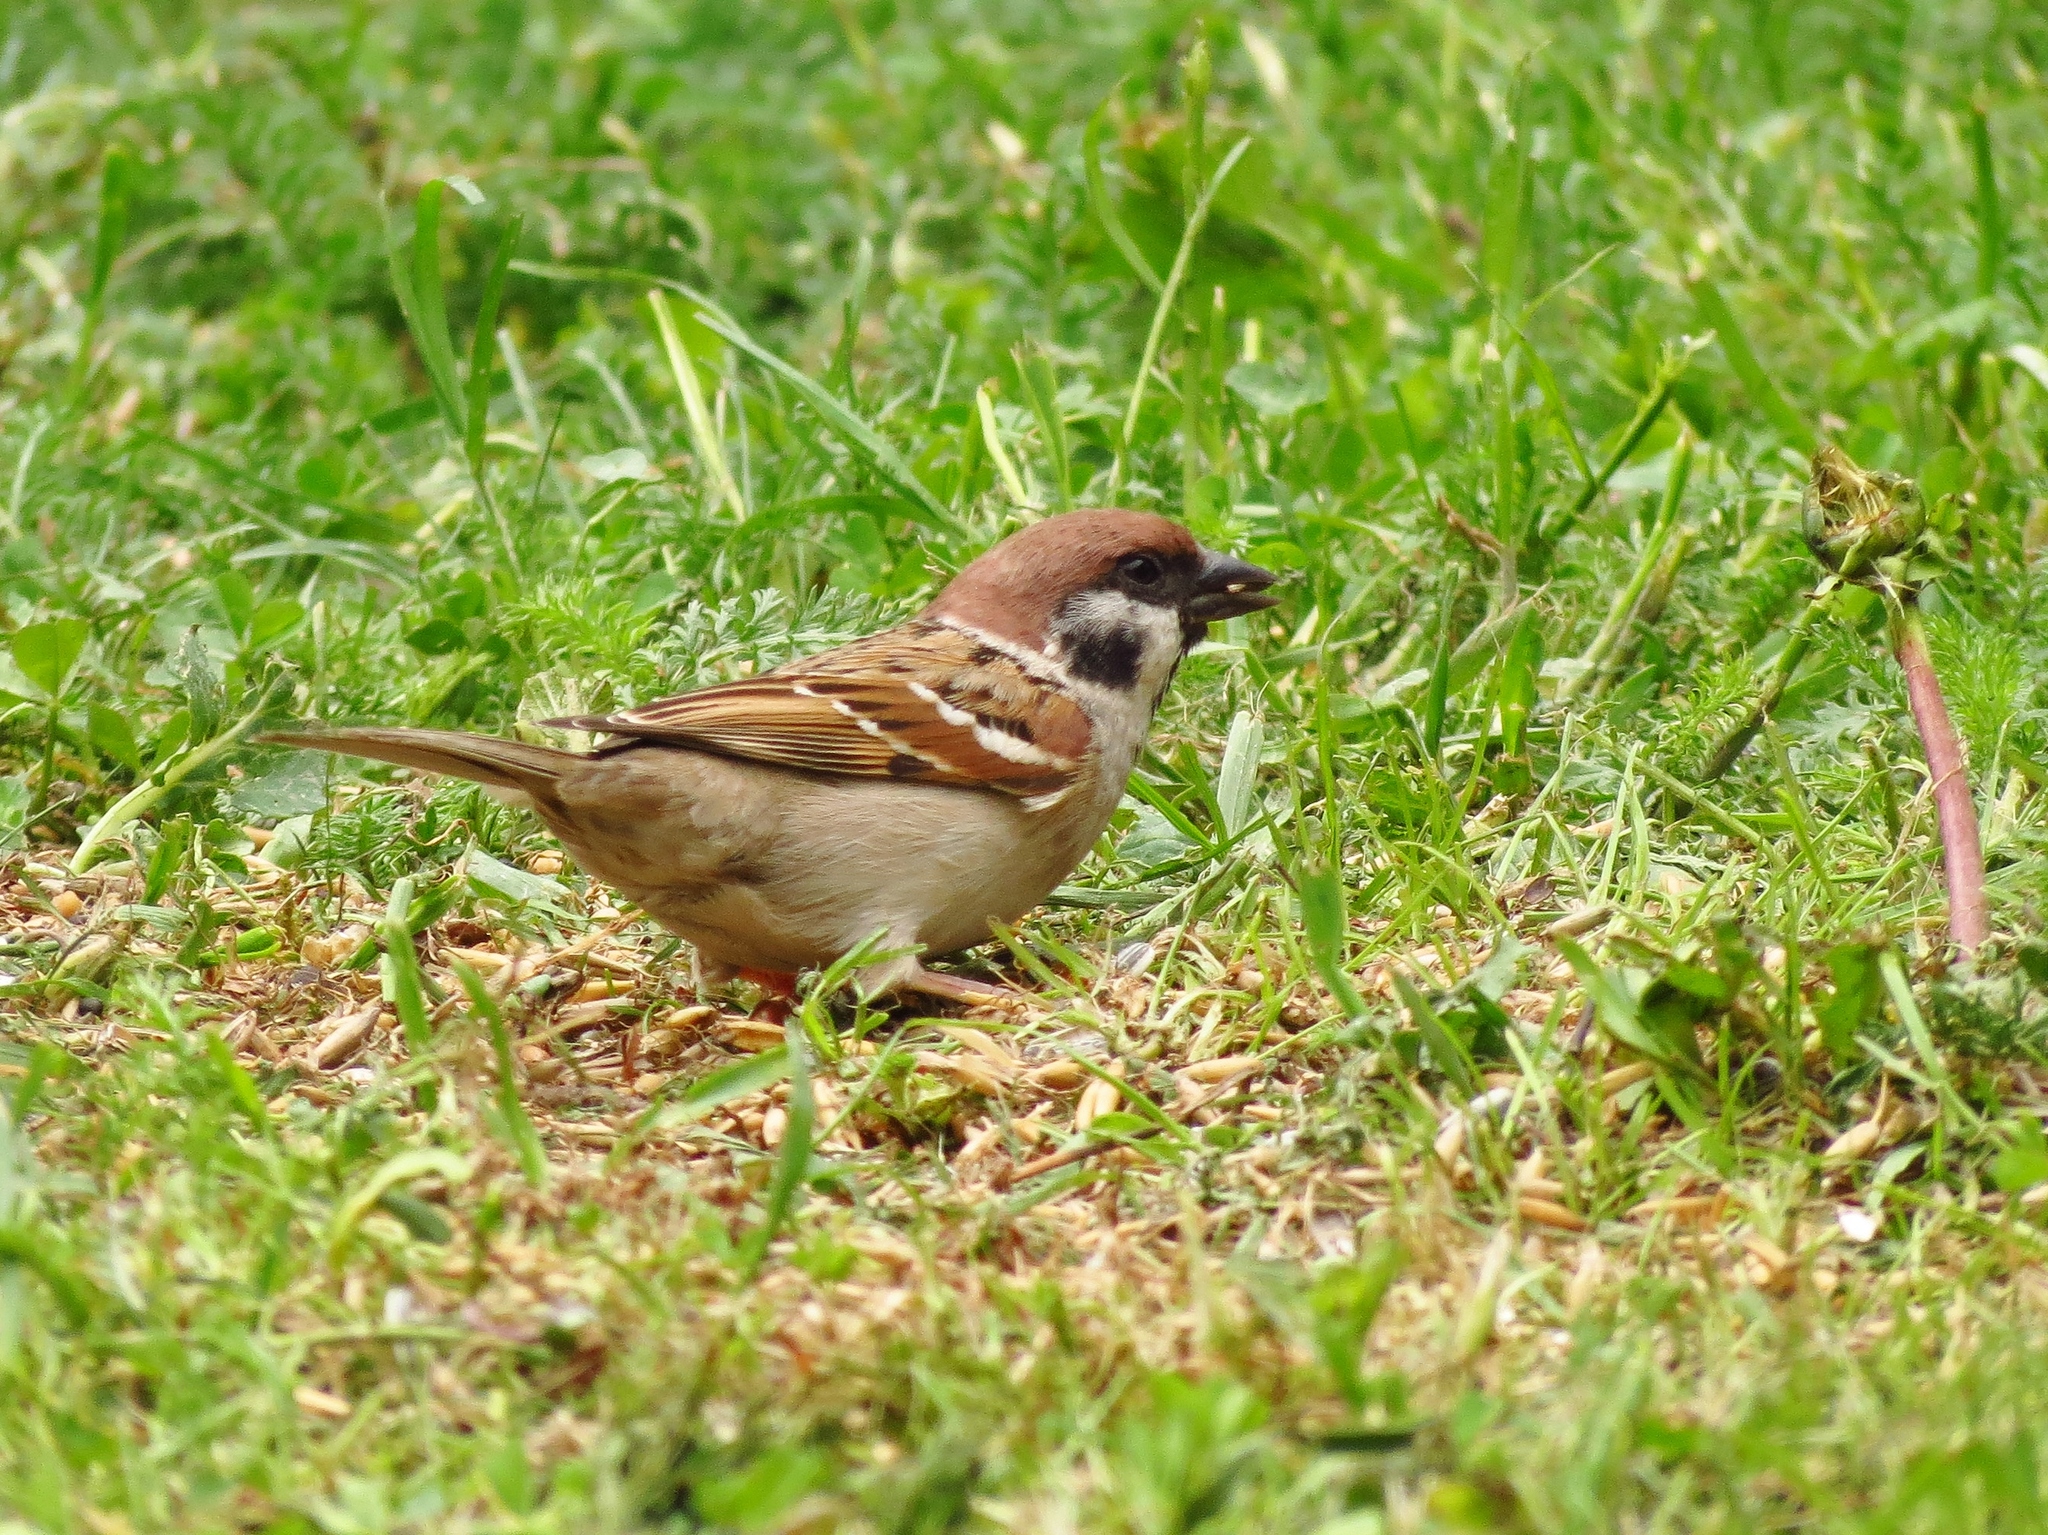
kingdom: Animalia
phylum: Chordata
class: Aves
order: Passeriformes
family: Passeridae
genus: Passer
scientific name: Passer montanus
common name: Eurasian tree sparrow
